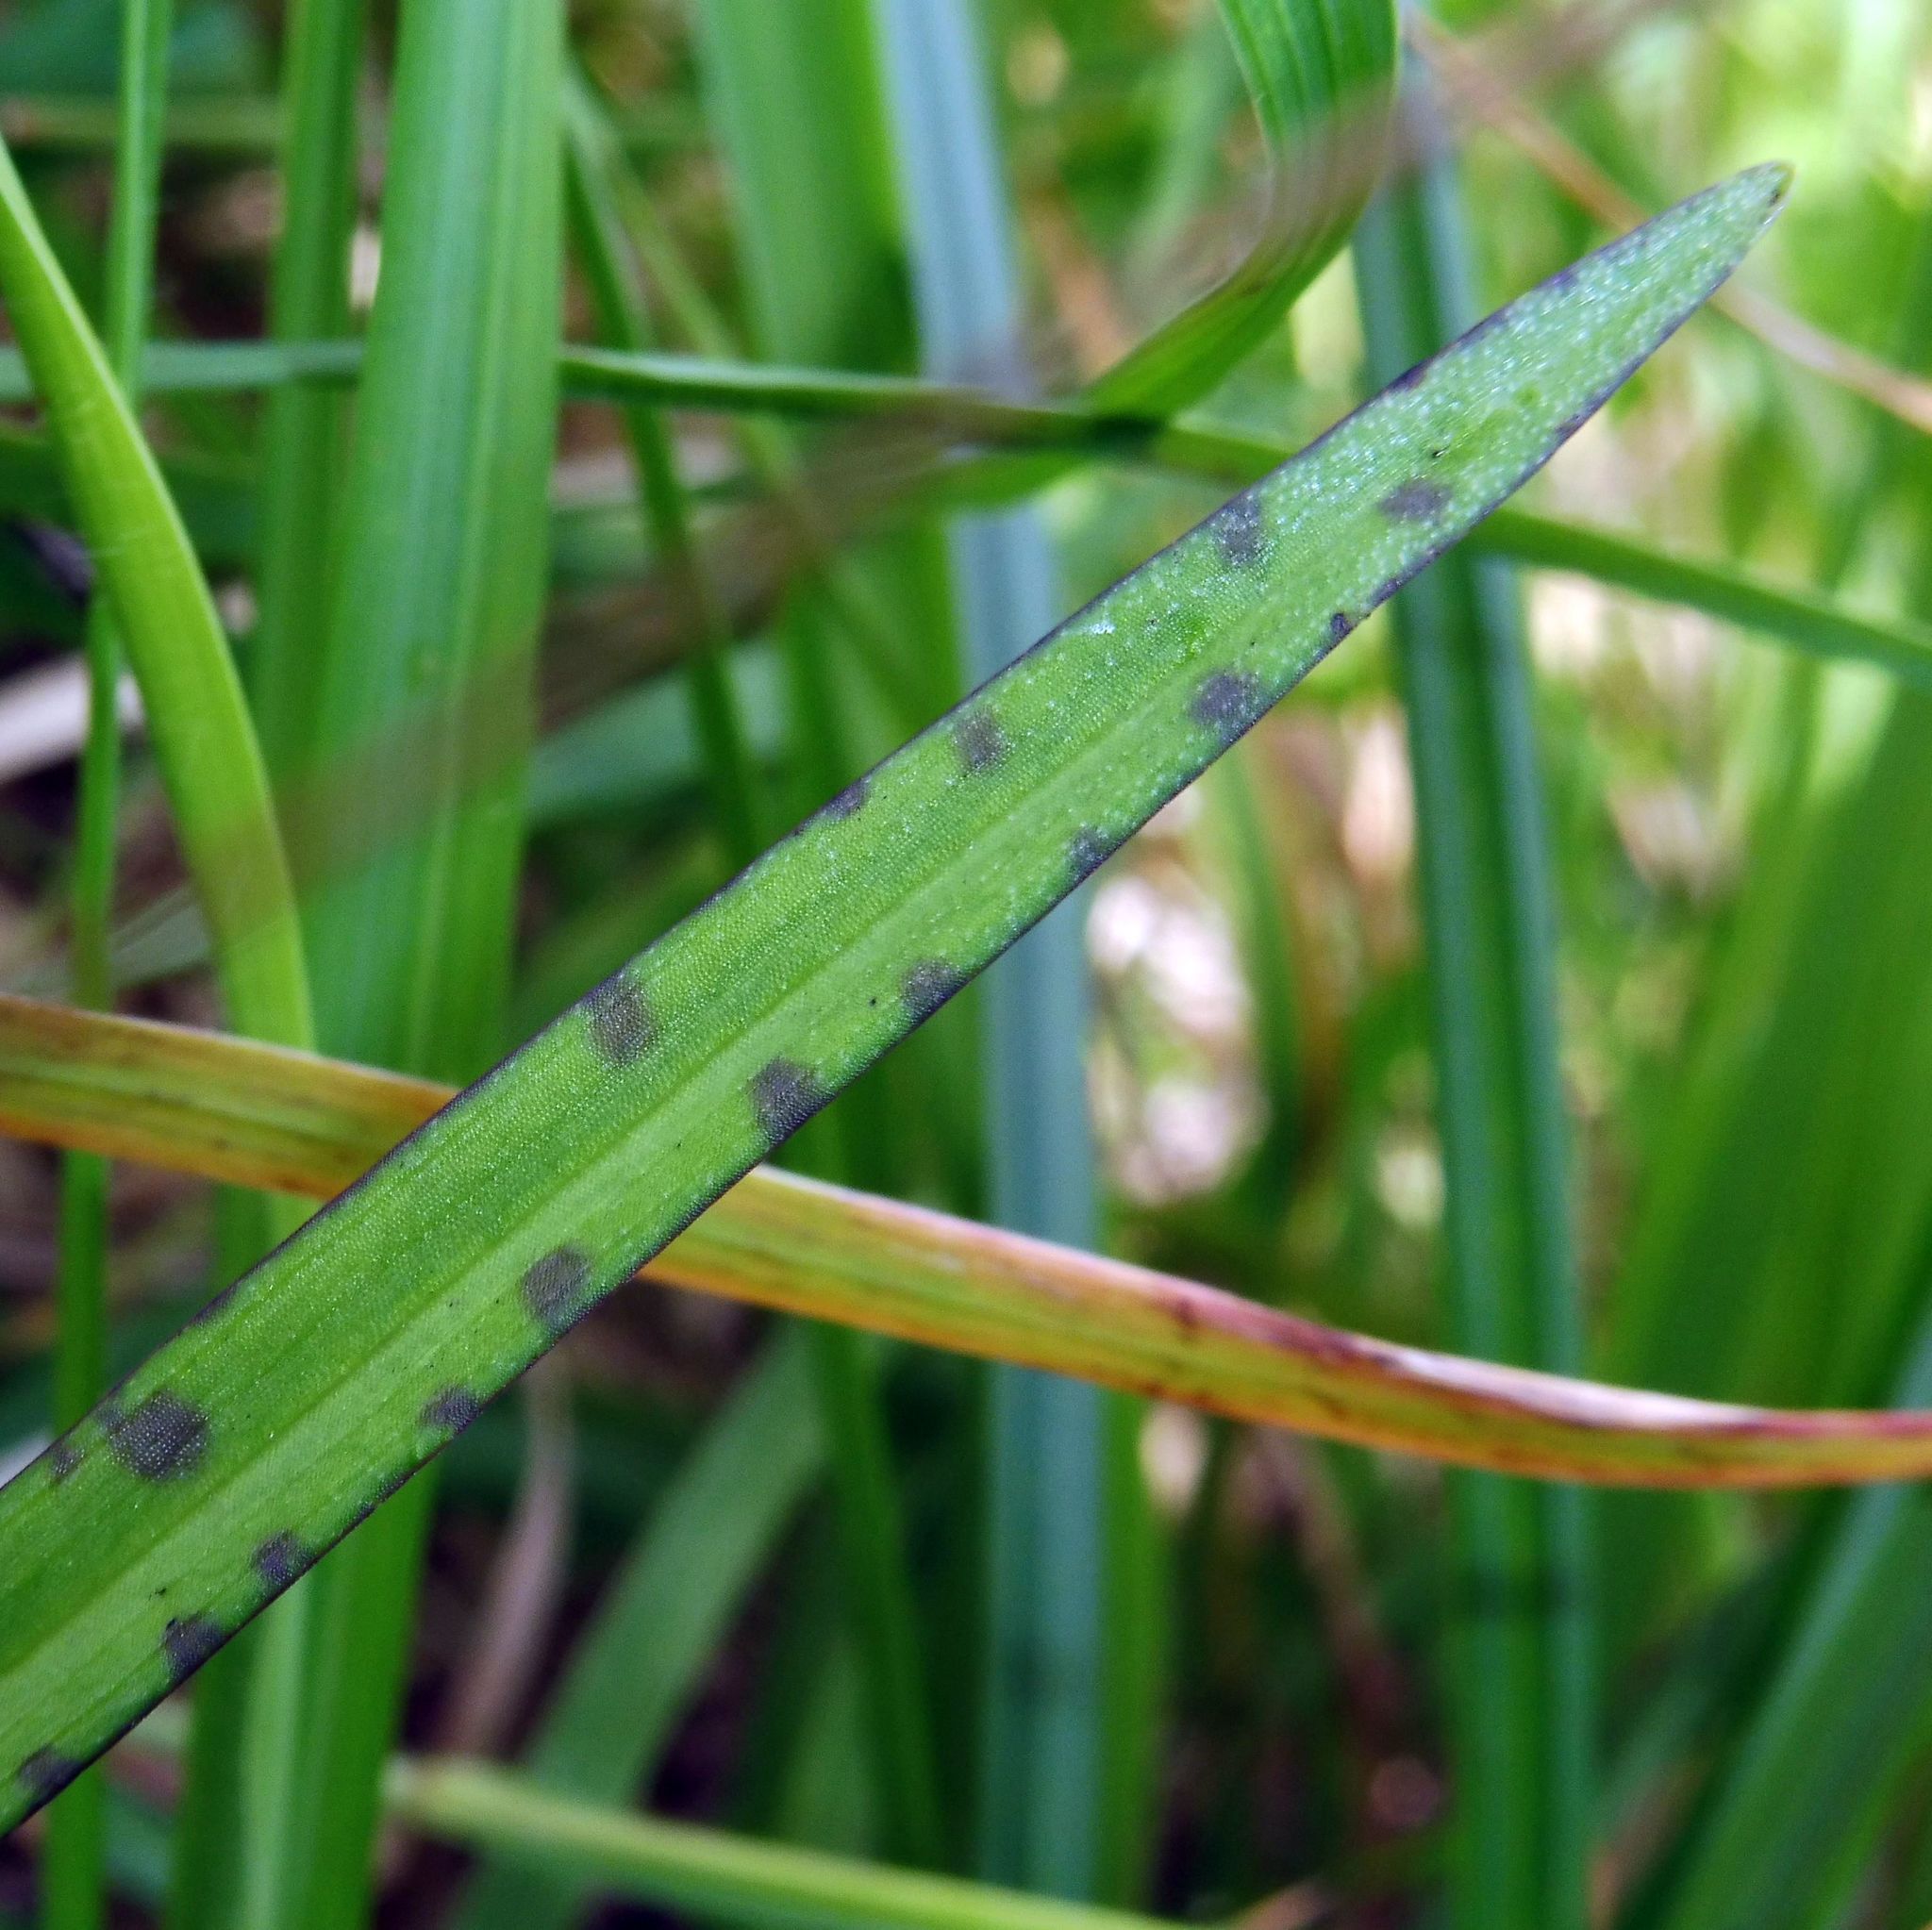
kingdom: Plantae
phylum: Tracheophyta
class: Liliopsida
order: Asparagales
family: Orchidaceae
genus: Dactylorhiza
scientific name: Dactylorhiza maculata
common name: Heath spotted-orchid
